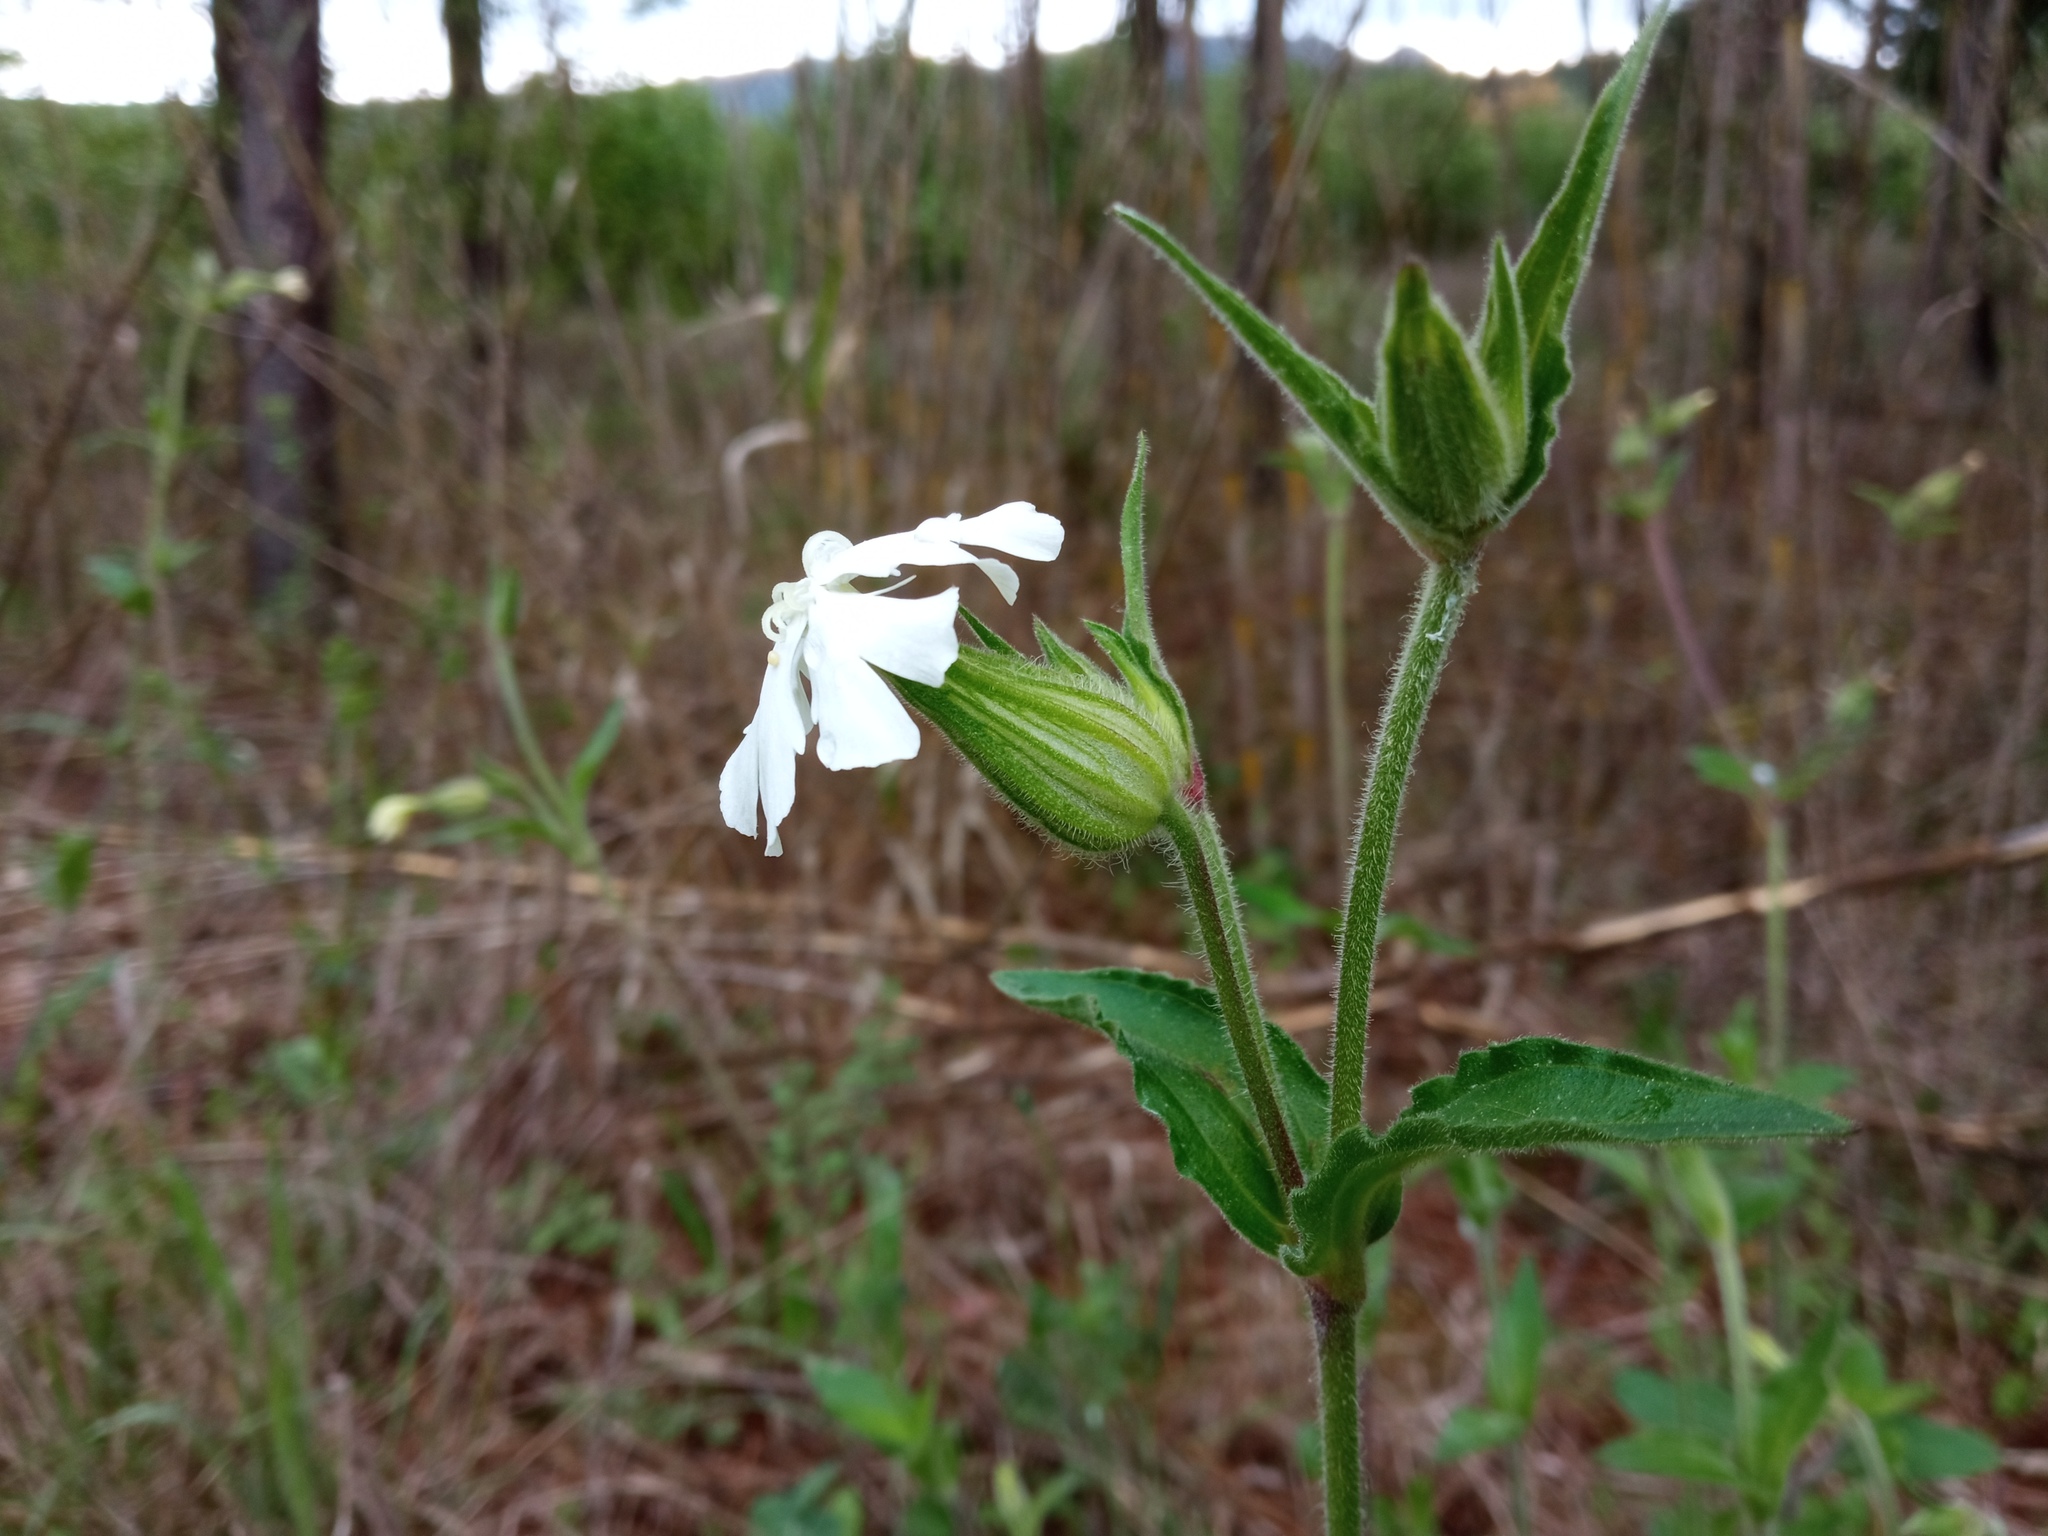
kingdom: Plantae
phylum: Tracheophyta
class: Magnoliopsida
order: Caryophyllales
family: Caryophyllaceae
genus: Silene
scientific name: Silene latifolia
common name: White campion
